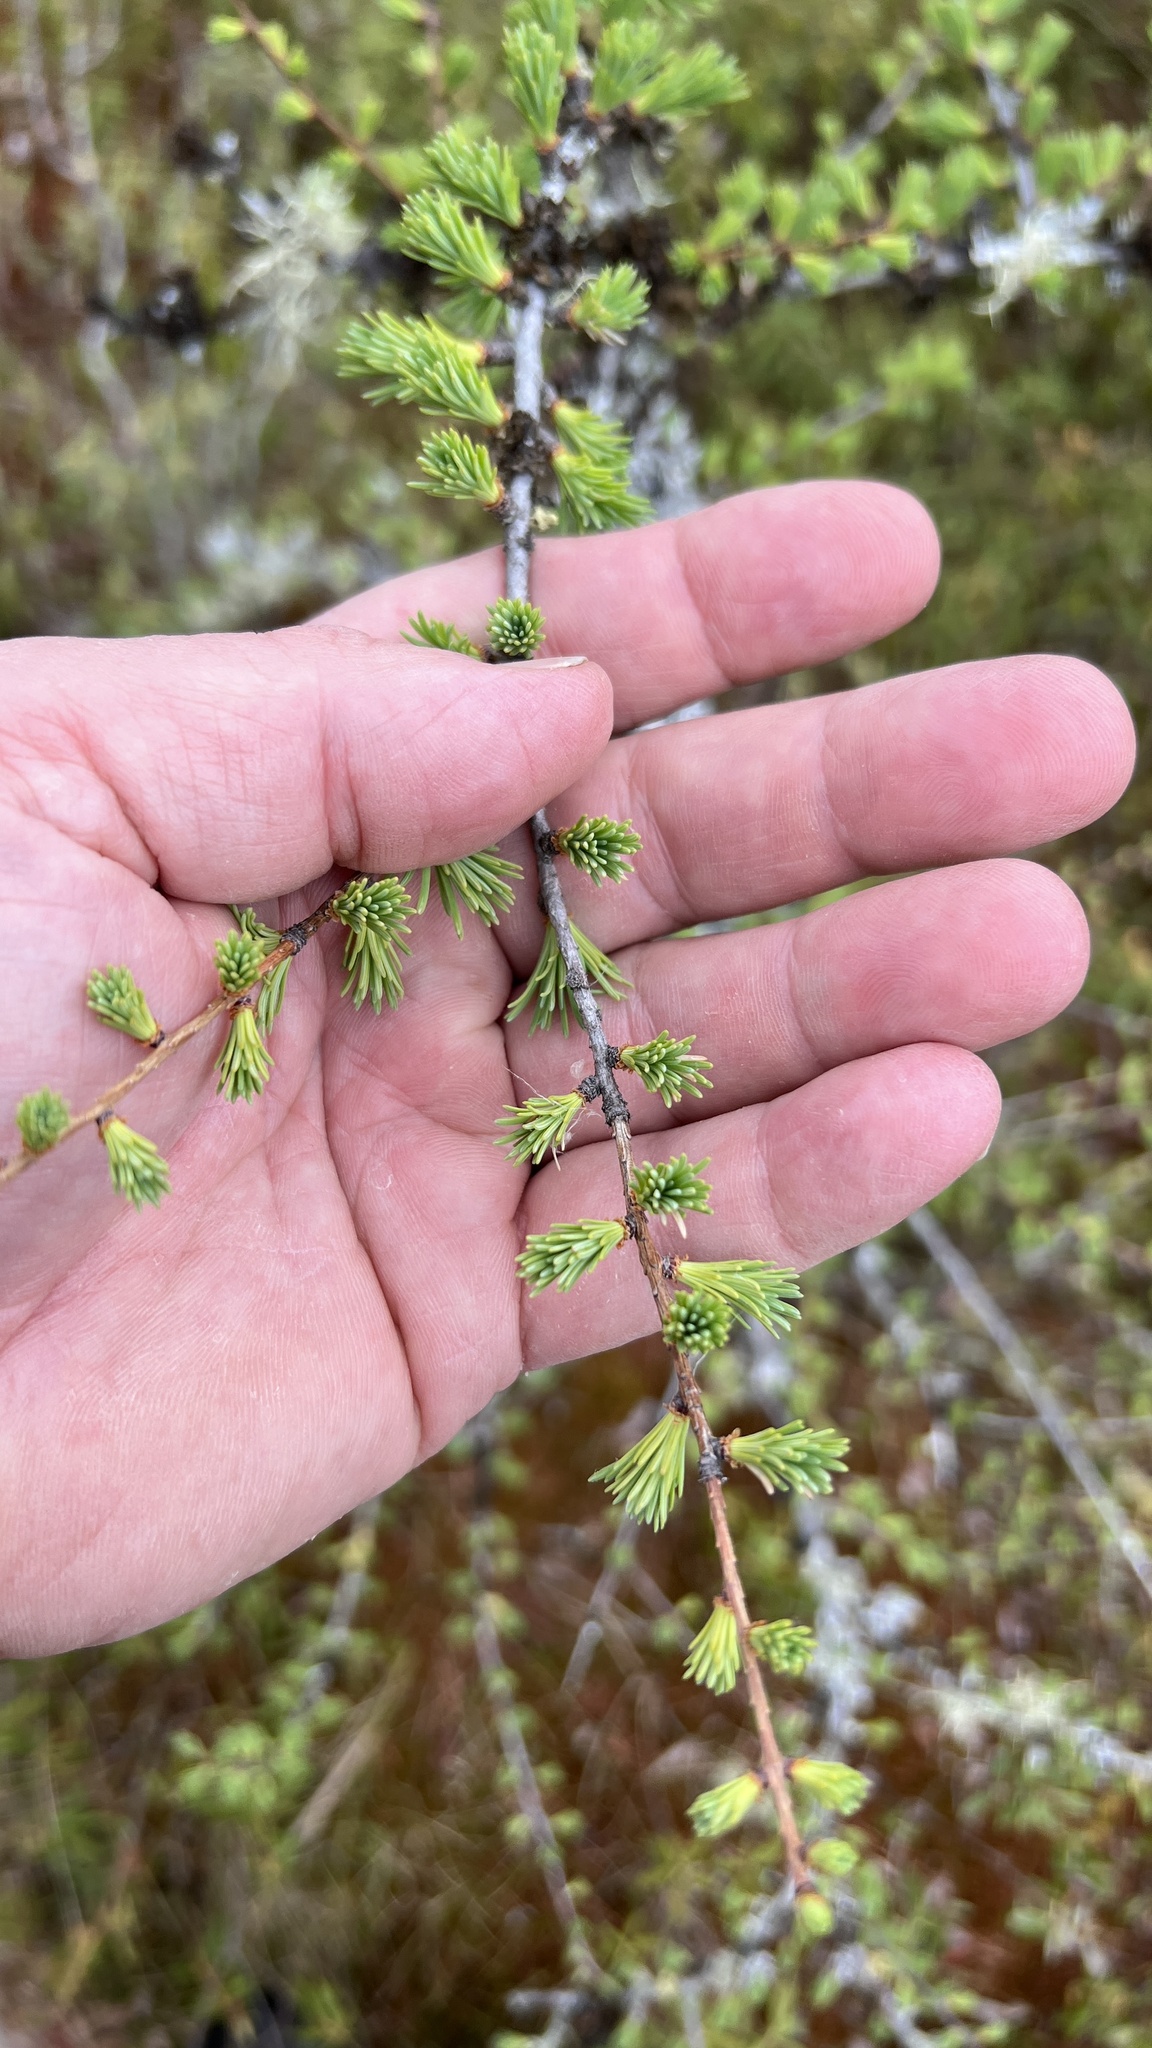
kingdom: Plantae
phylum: Tracheophyta
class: Pinopsida
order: Pinales
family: Pinaceae
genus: Larix
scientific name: Larix laricina
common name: American larch
